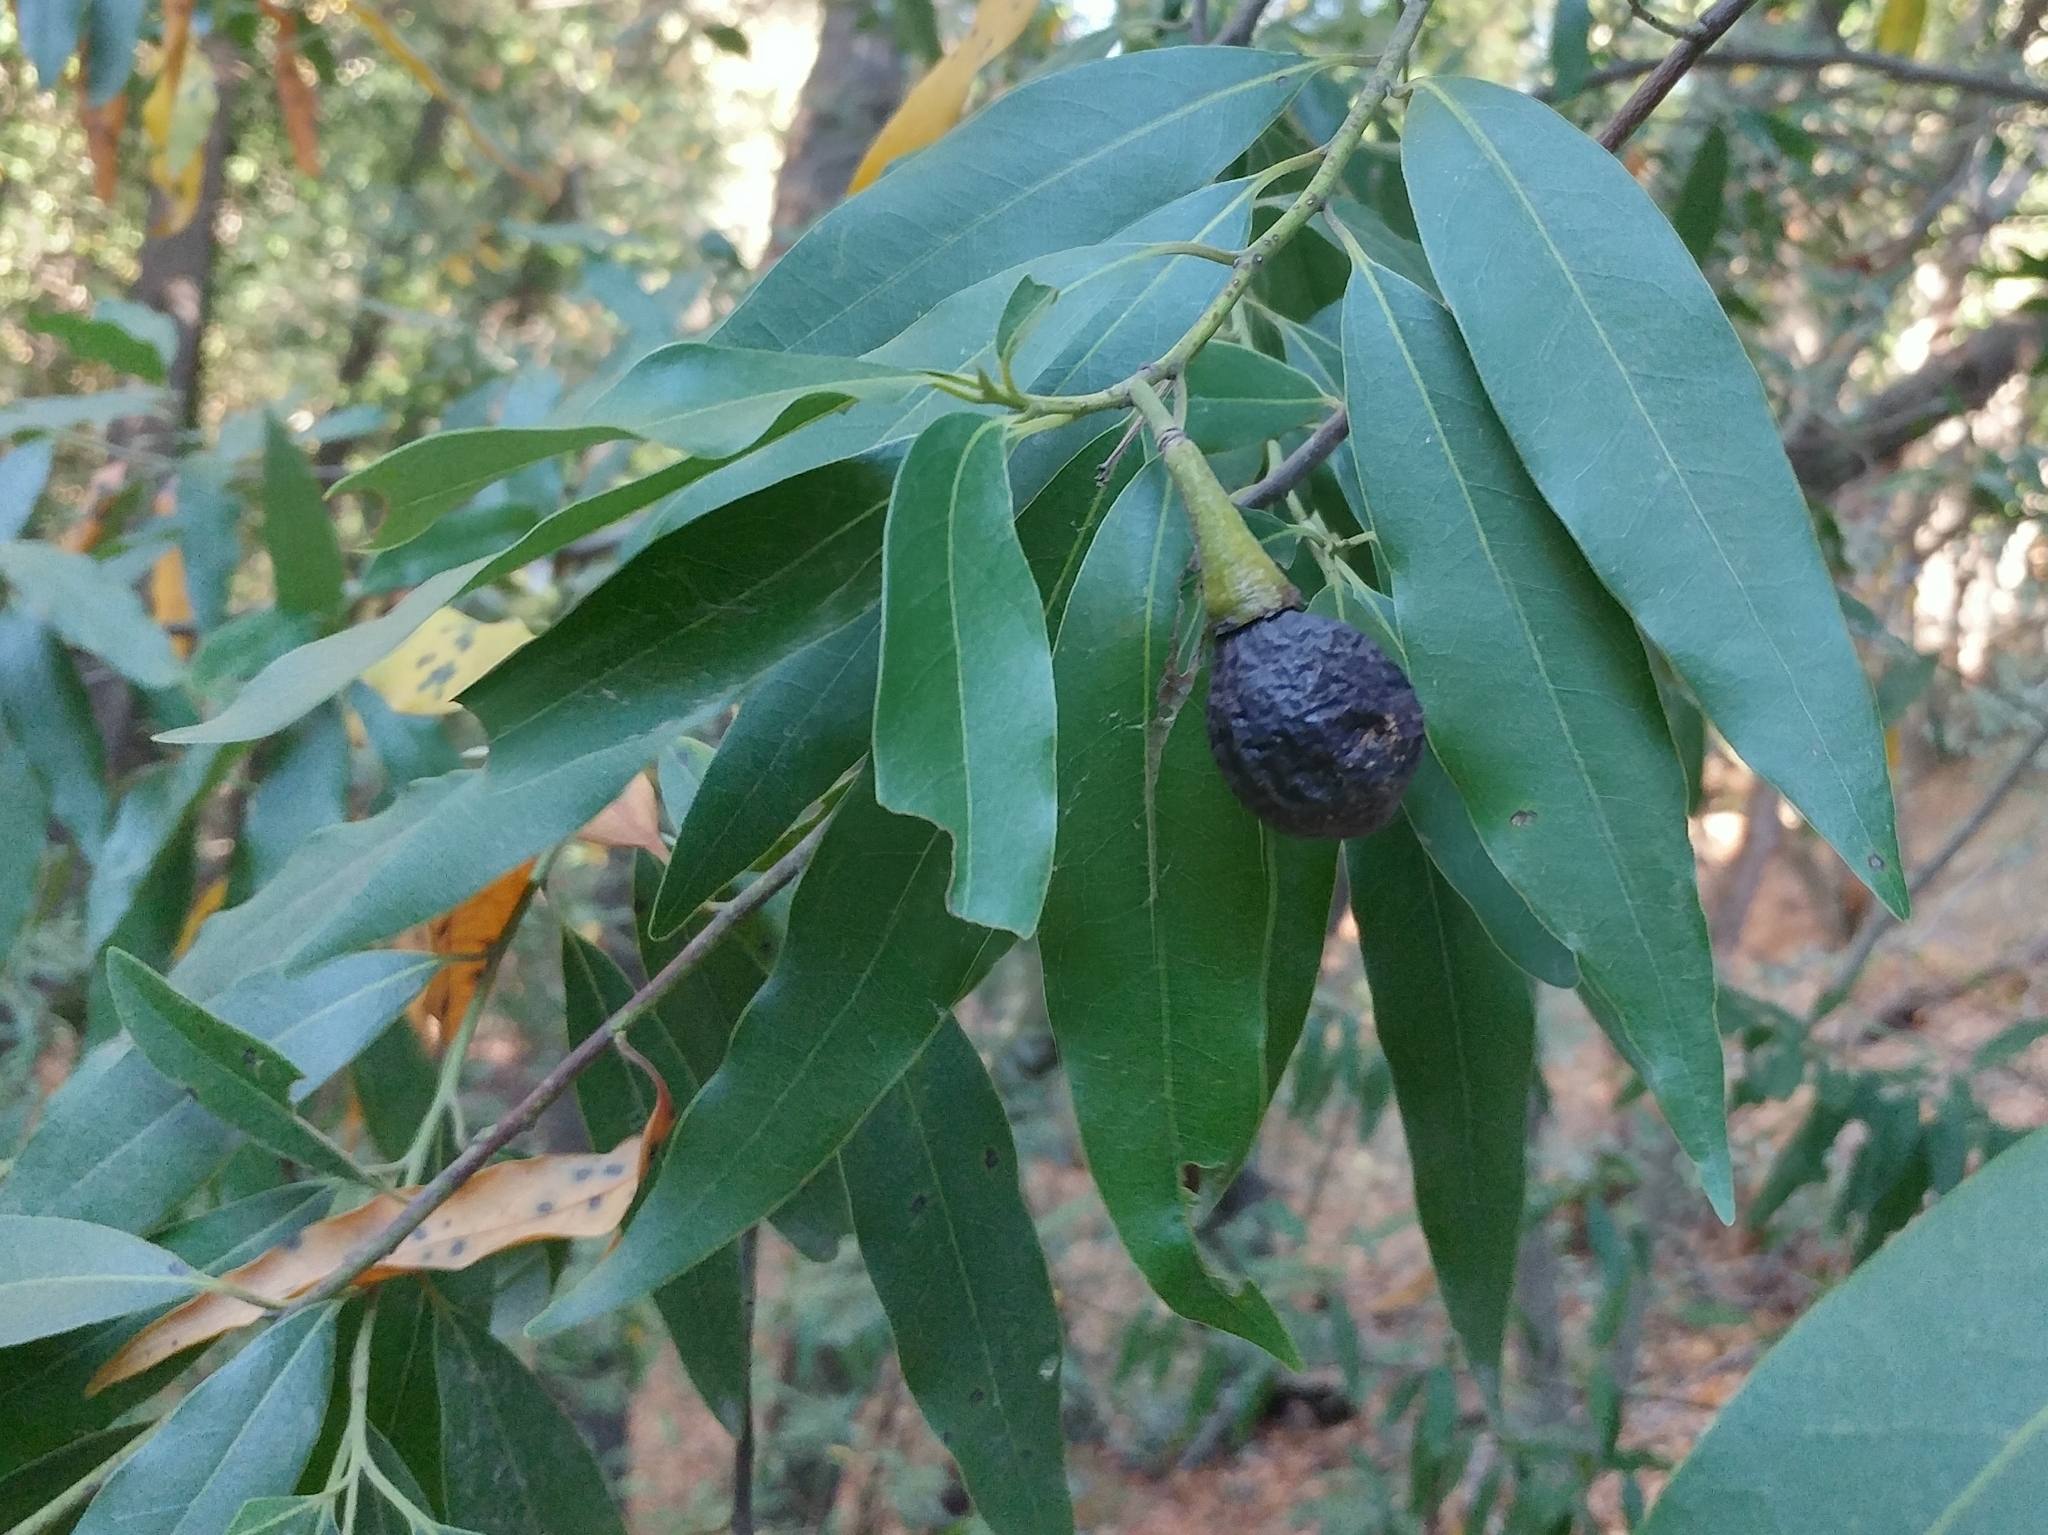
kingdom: Plantae
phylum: Tracheophyta
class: Magnoliopsida
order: Laurales
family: Lauraceae
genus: Umbellularia
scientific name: Umbellularia californica
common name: California bay
